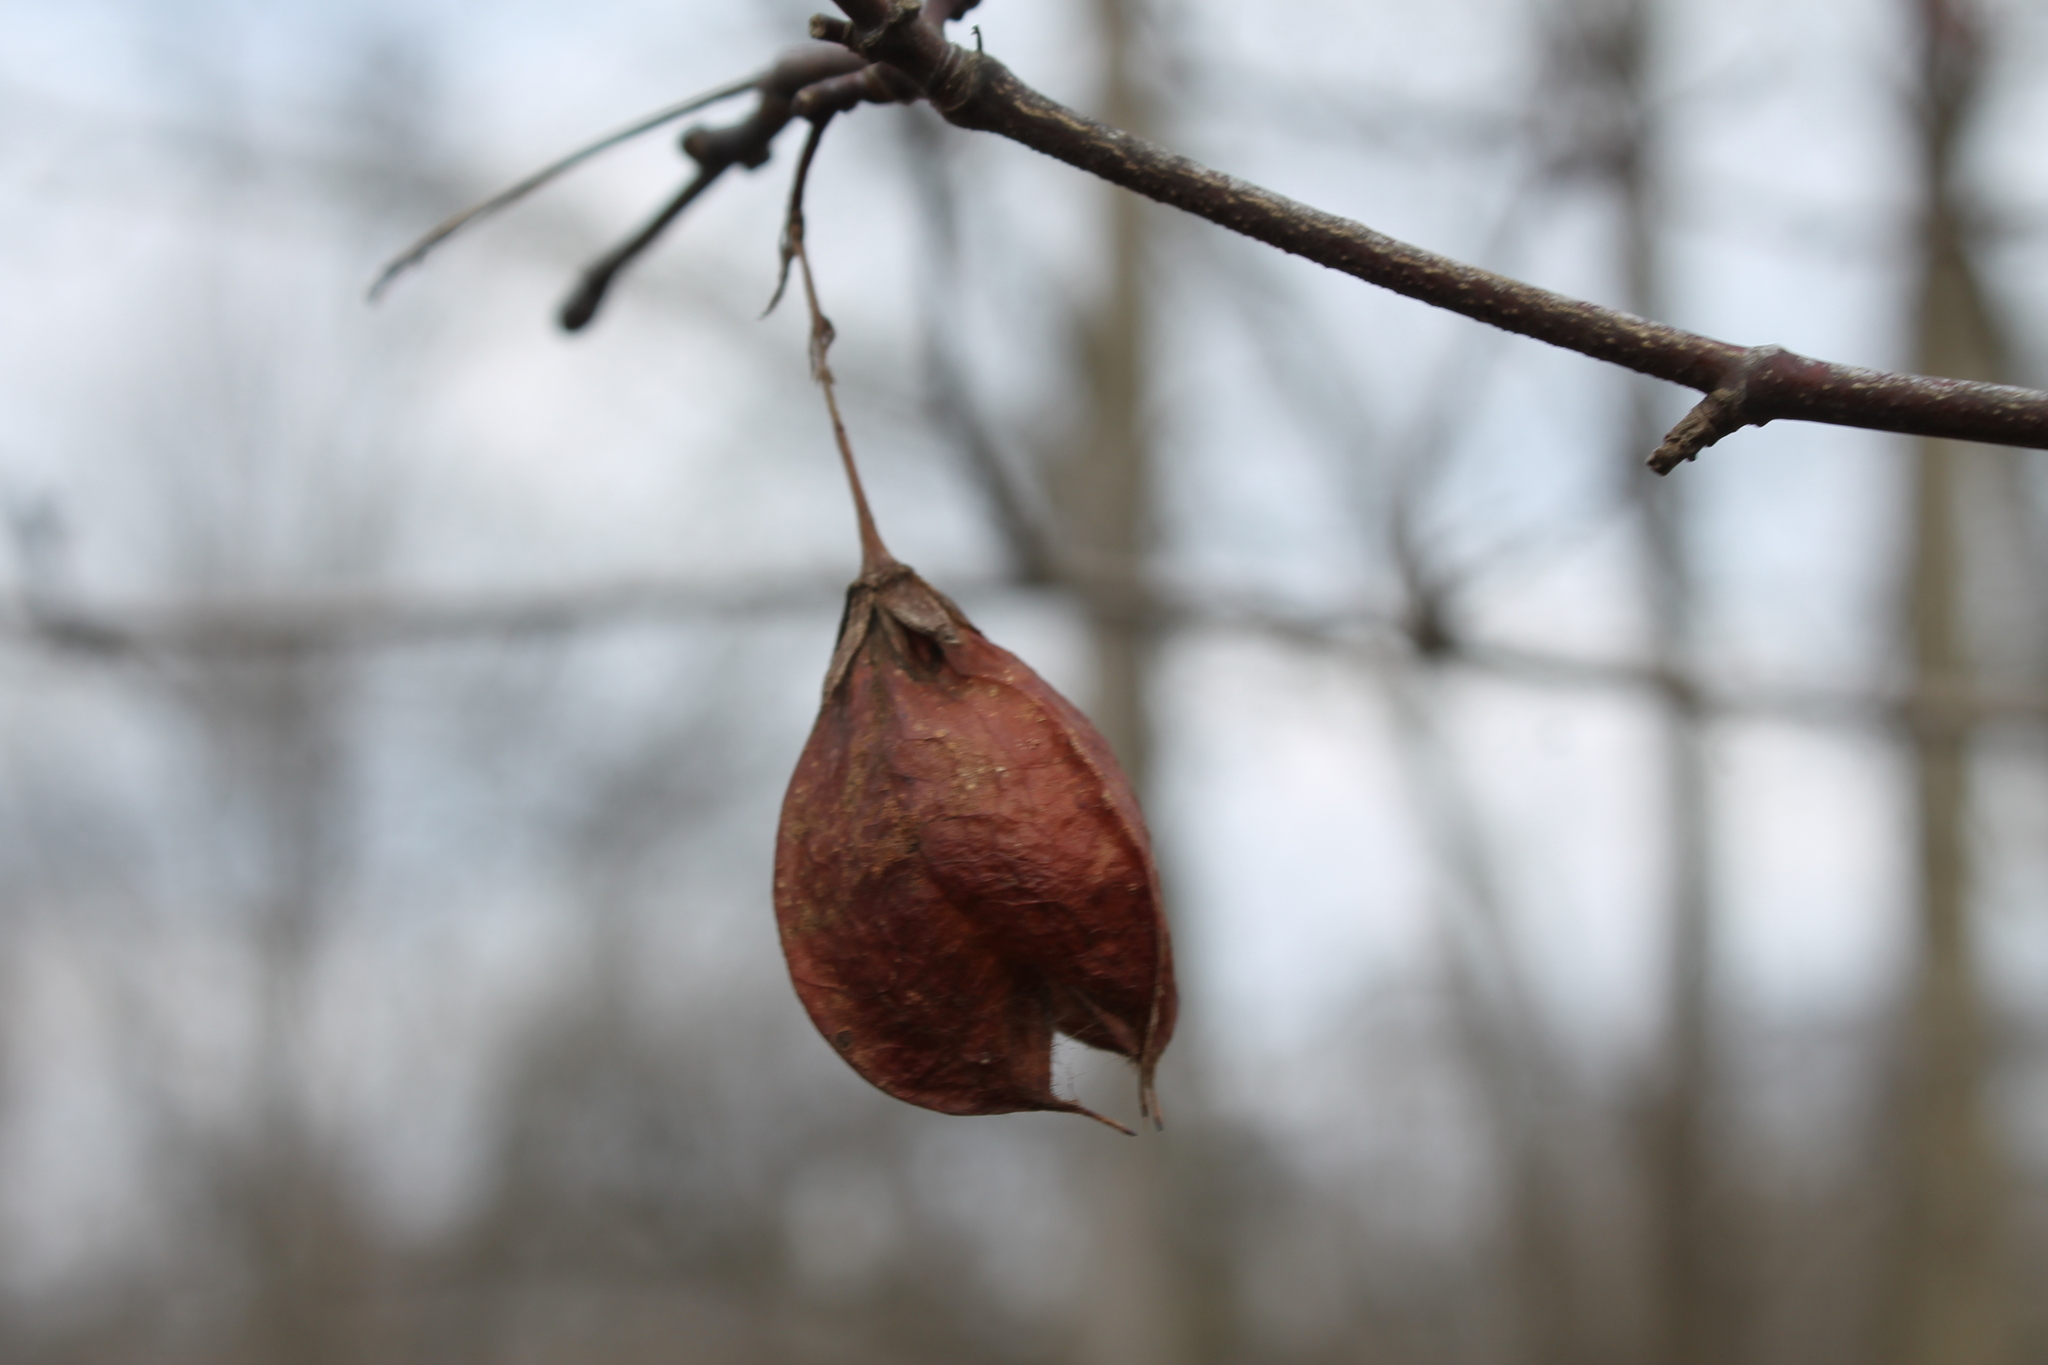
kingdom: Plantae
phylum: Tracheophyta
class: Magnoliopsida
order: Crossosomatales
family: Staphyleaceae
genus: Staphylea
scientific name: Staphylea trifolia
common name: American bladdernut
